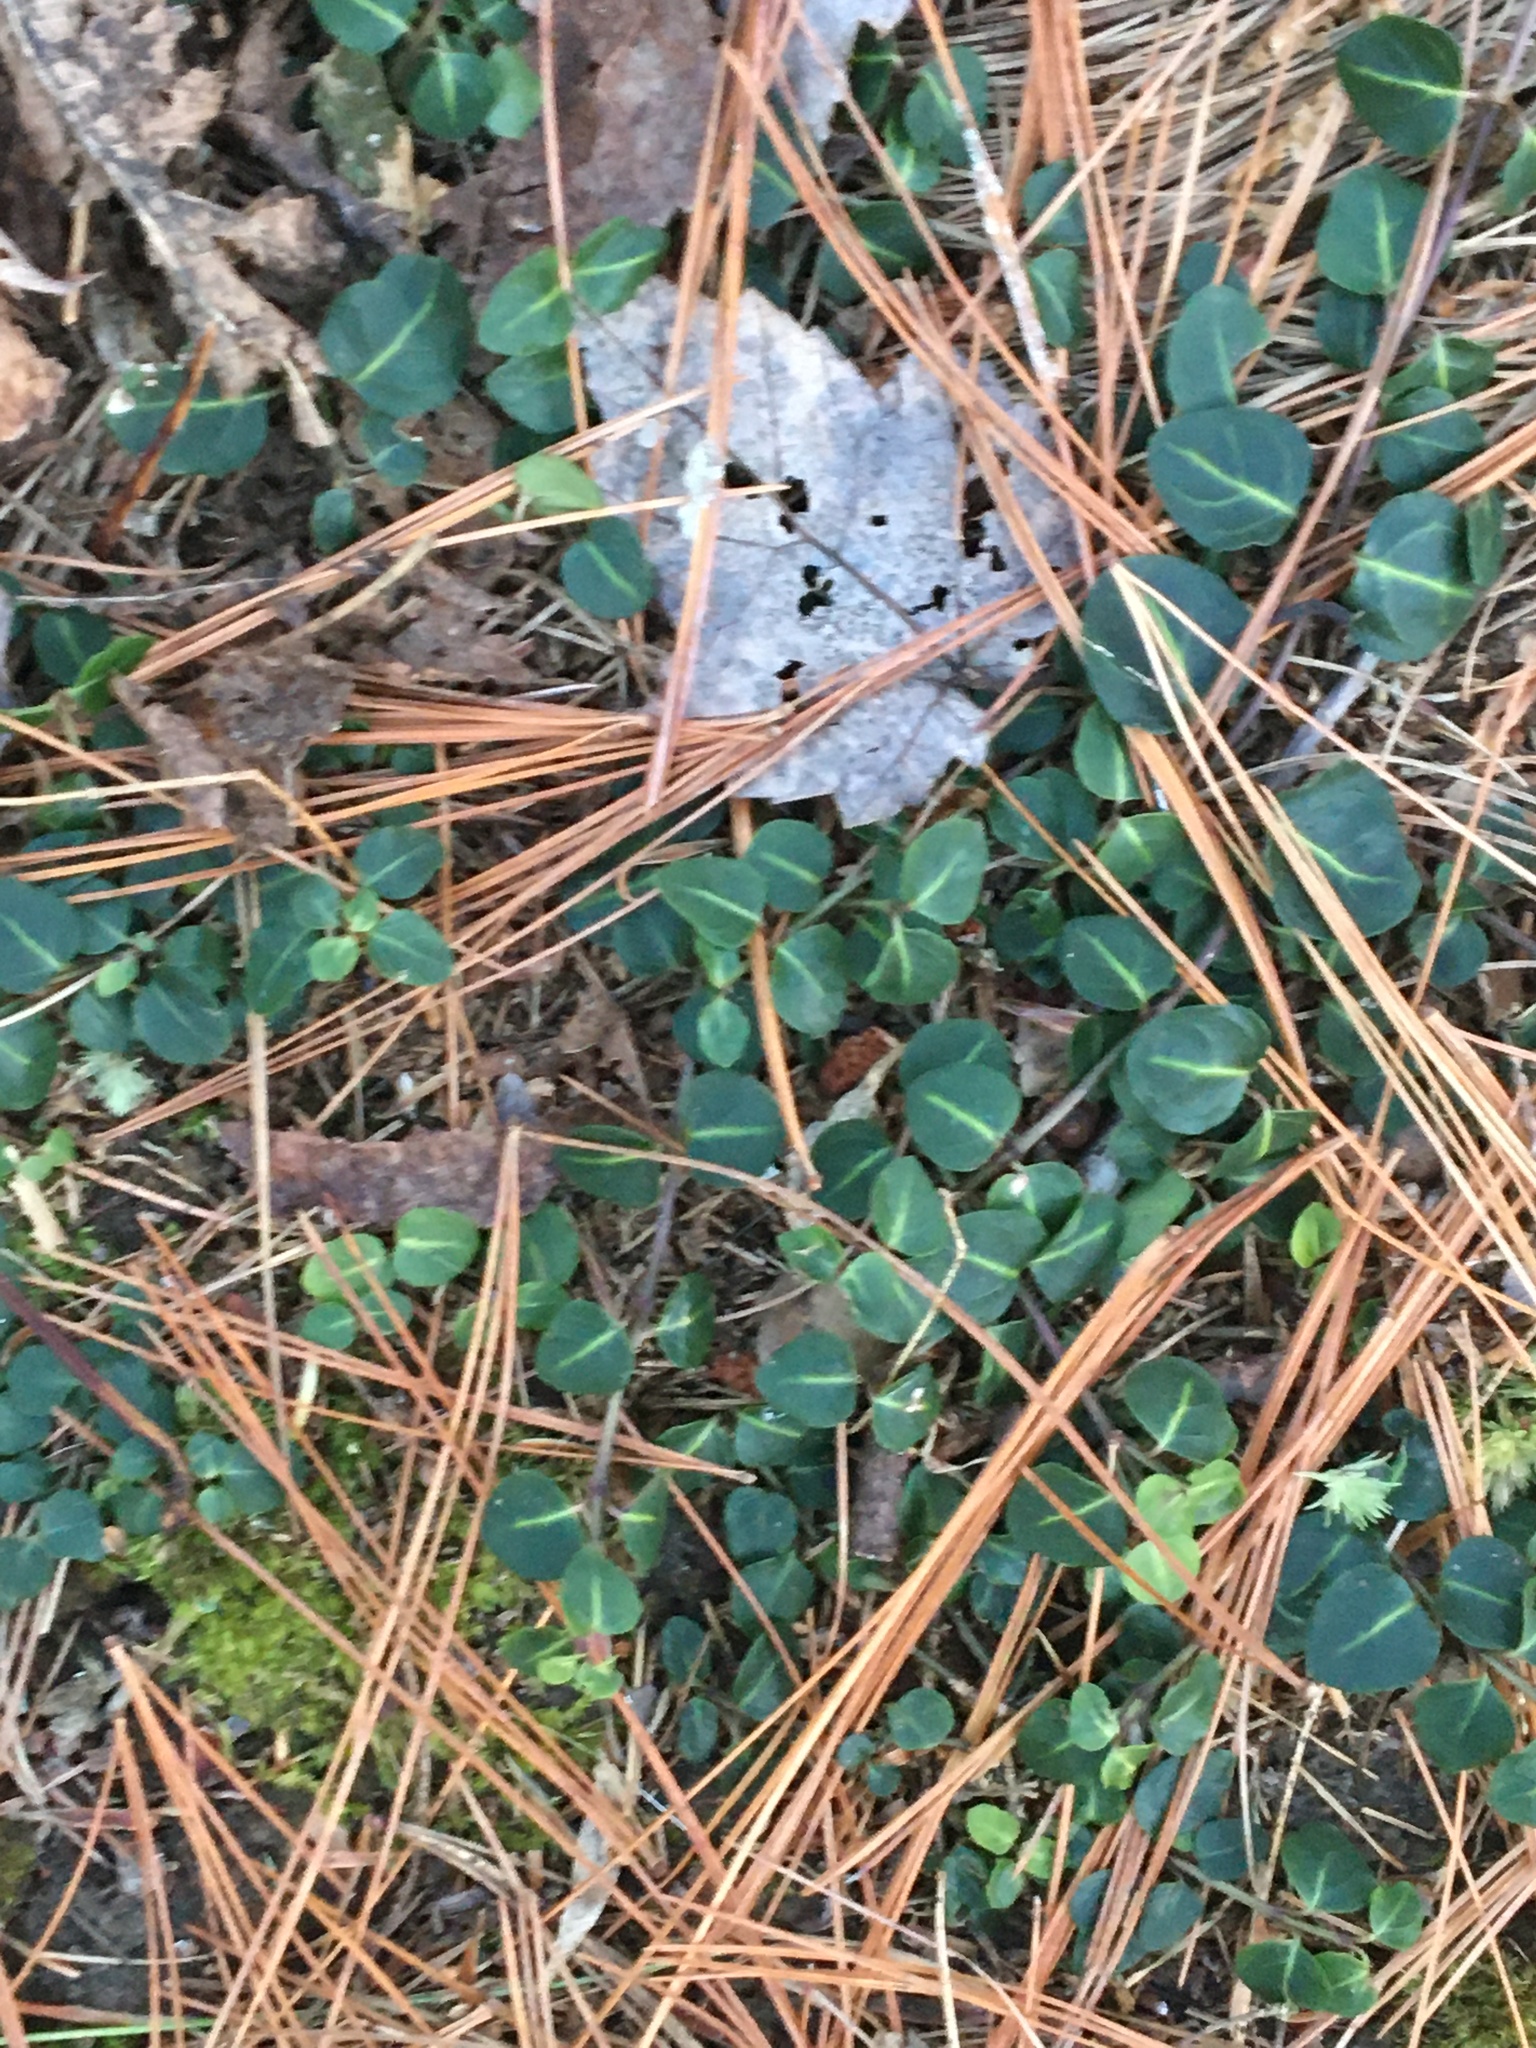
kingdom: Plantae
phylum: Tracheophyta
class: Magnoliopsida
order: Gentianales
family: Rubiaceae
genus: Mitchella
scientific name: Mitchella repens
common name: Partridge-berry
